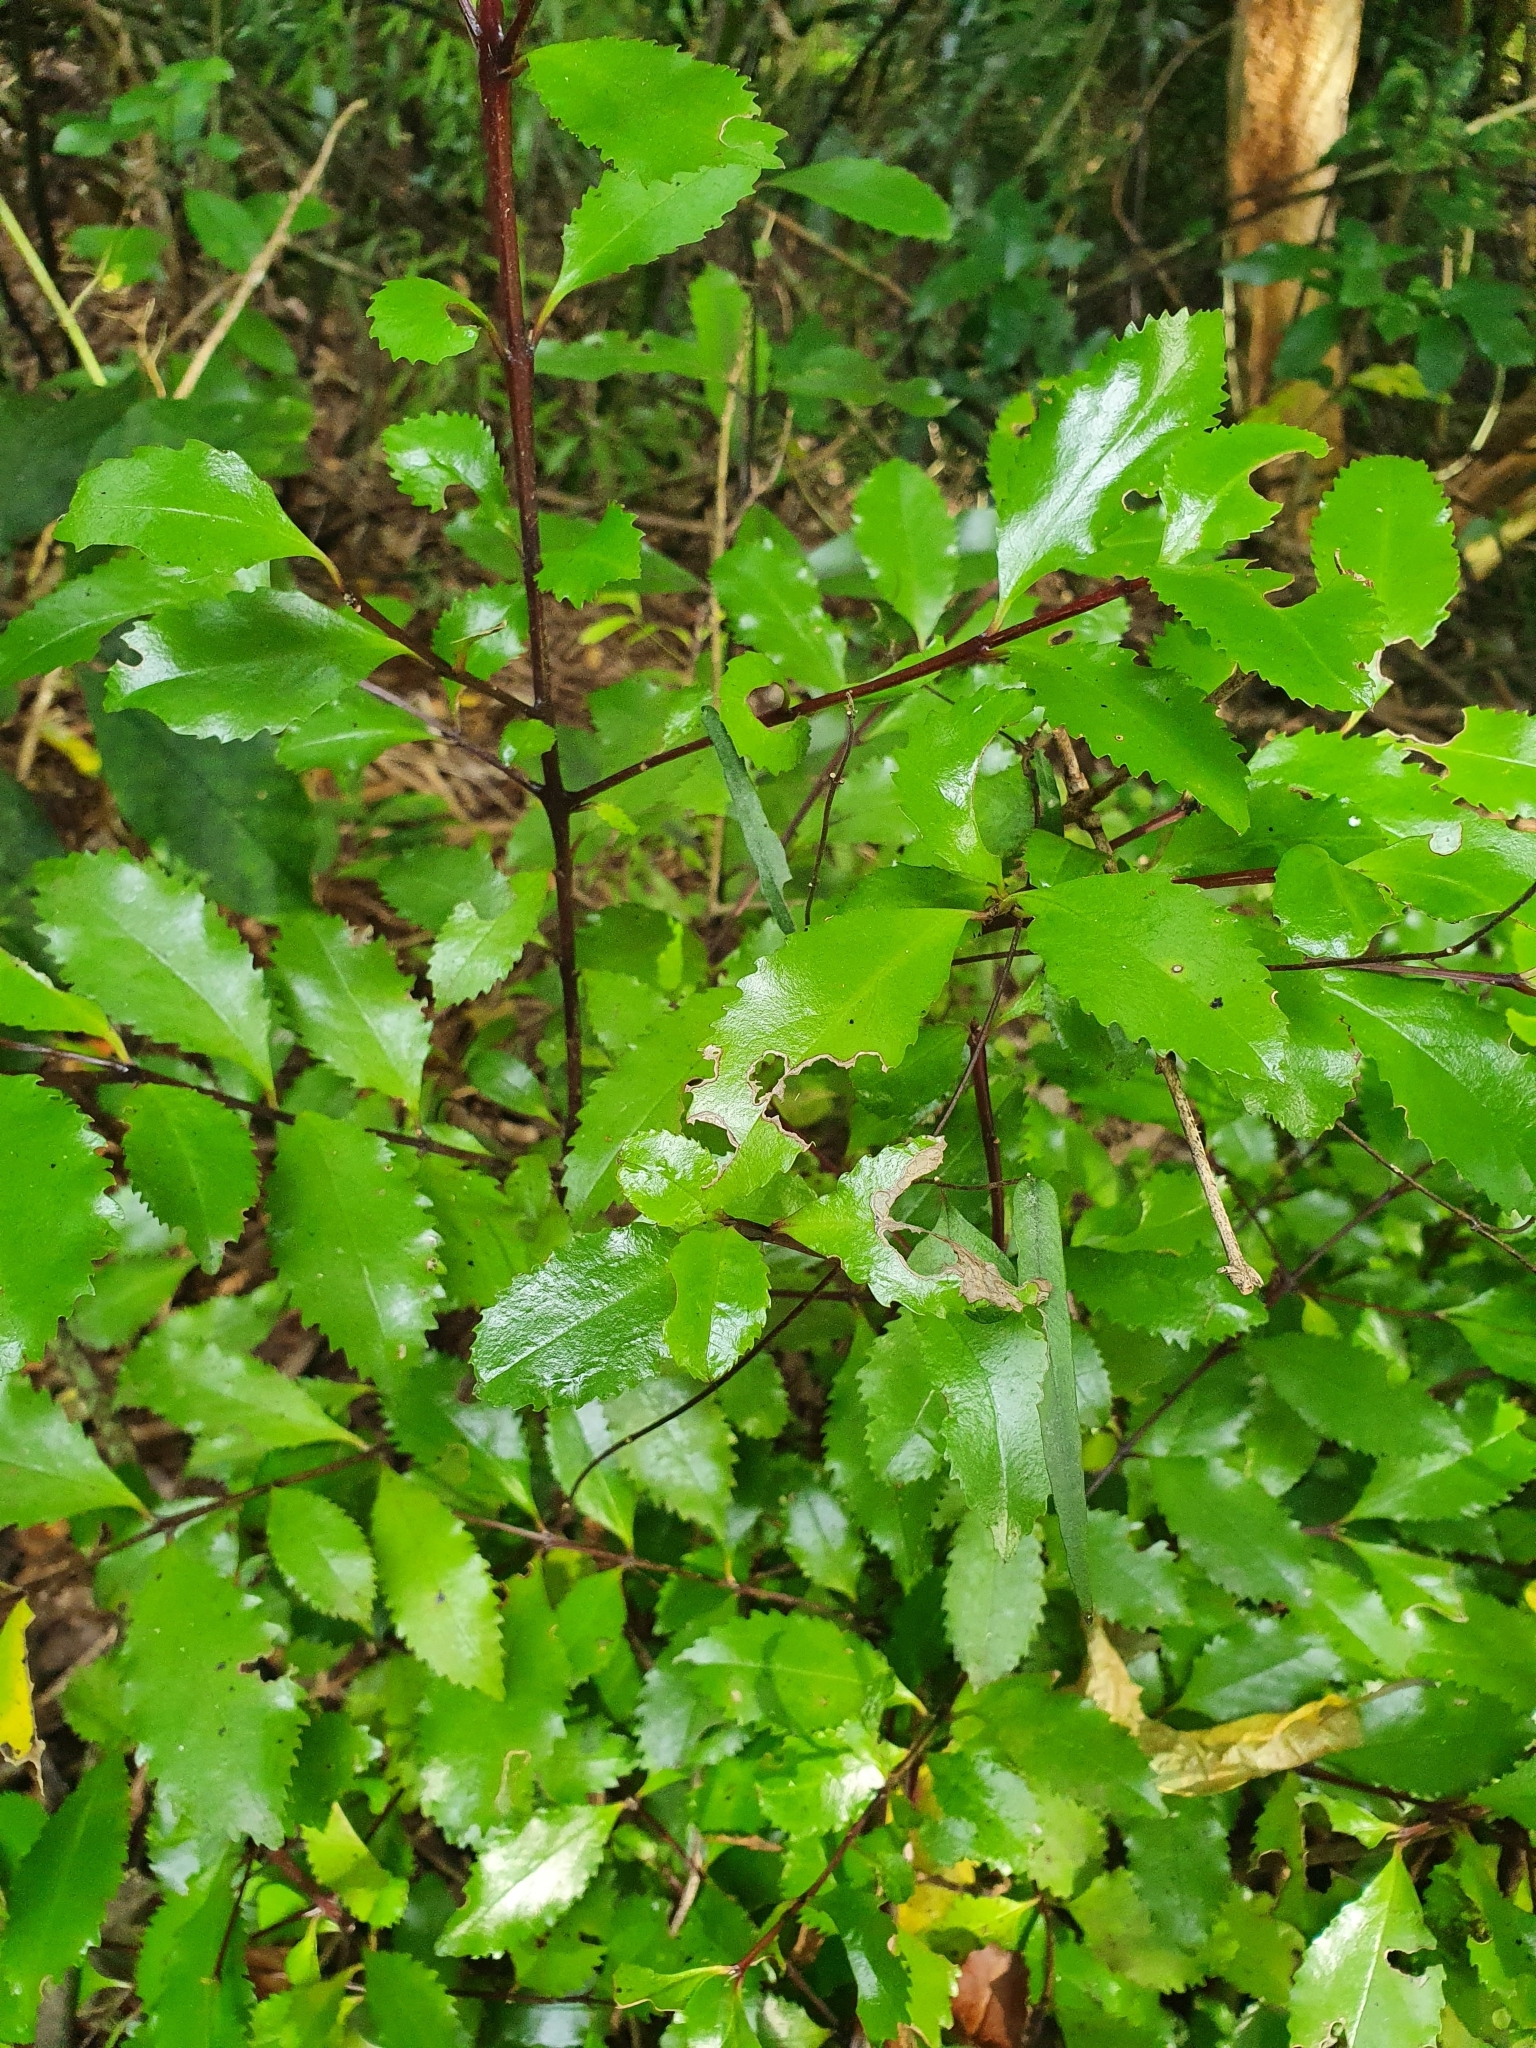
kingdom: Plantae
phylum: Tracheophyta
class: Magnoliopsida
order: Laurales
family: Atherospermataceae
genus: Laurelia
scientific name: Laurelia novae-zelandiae
